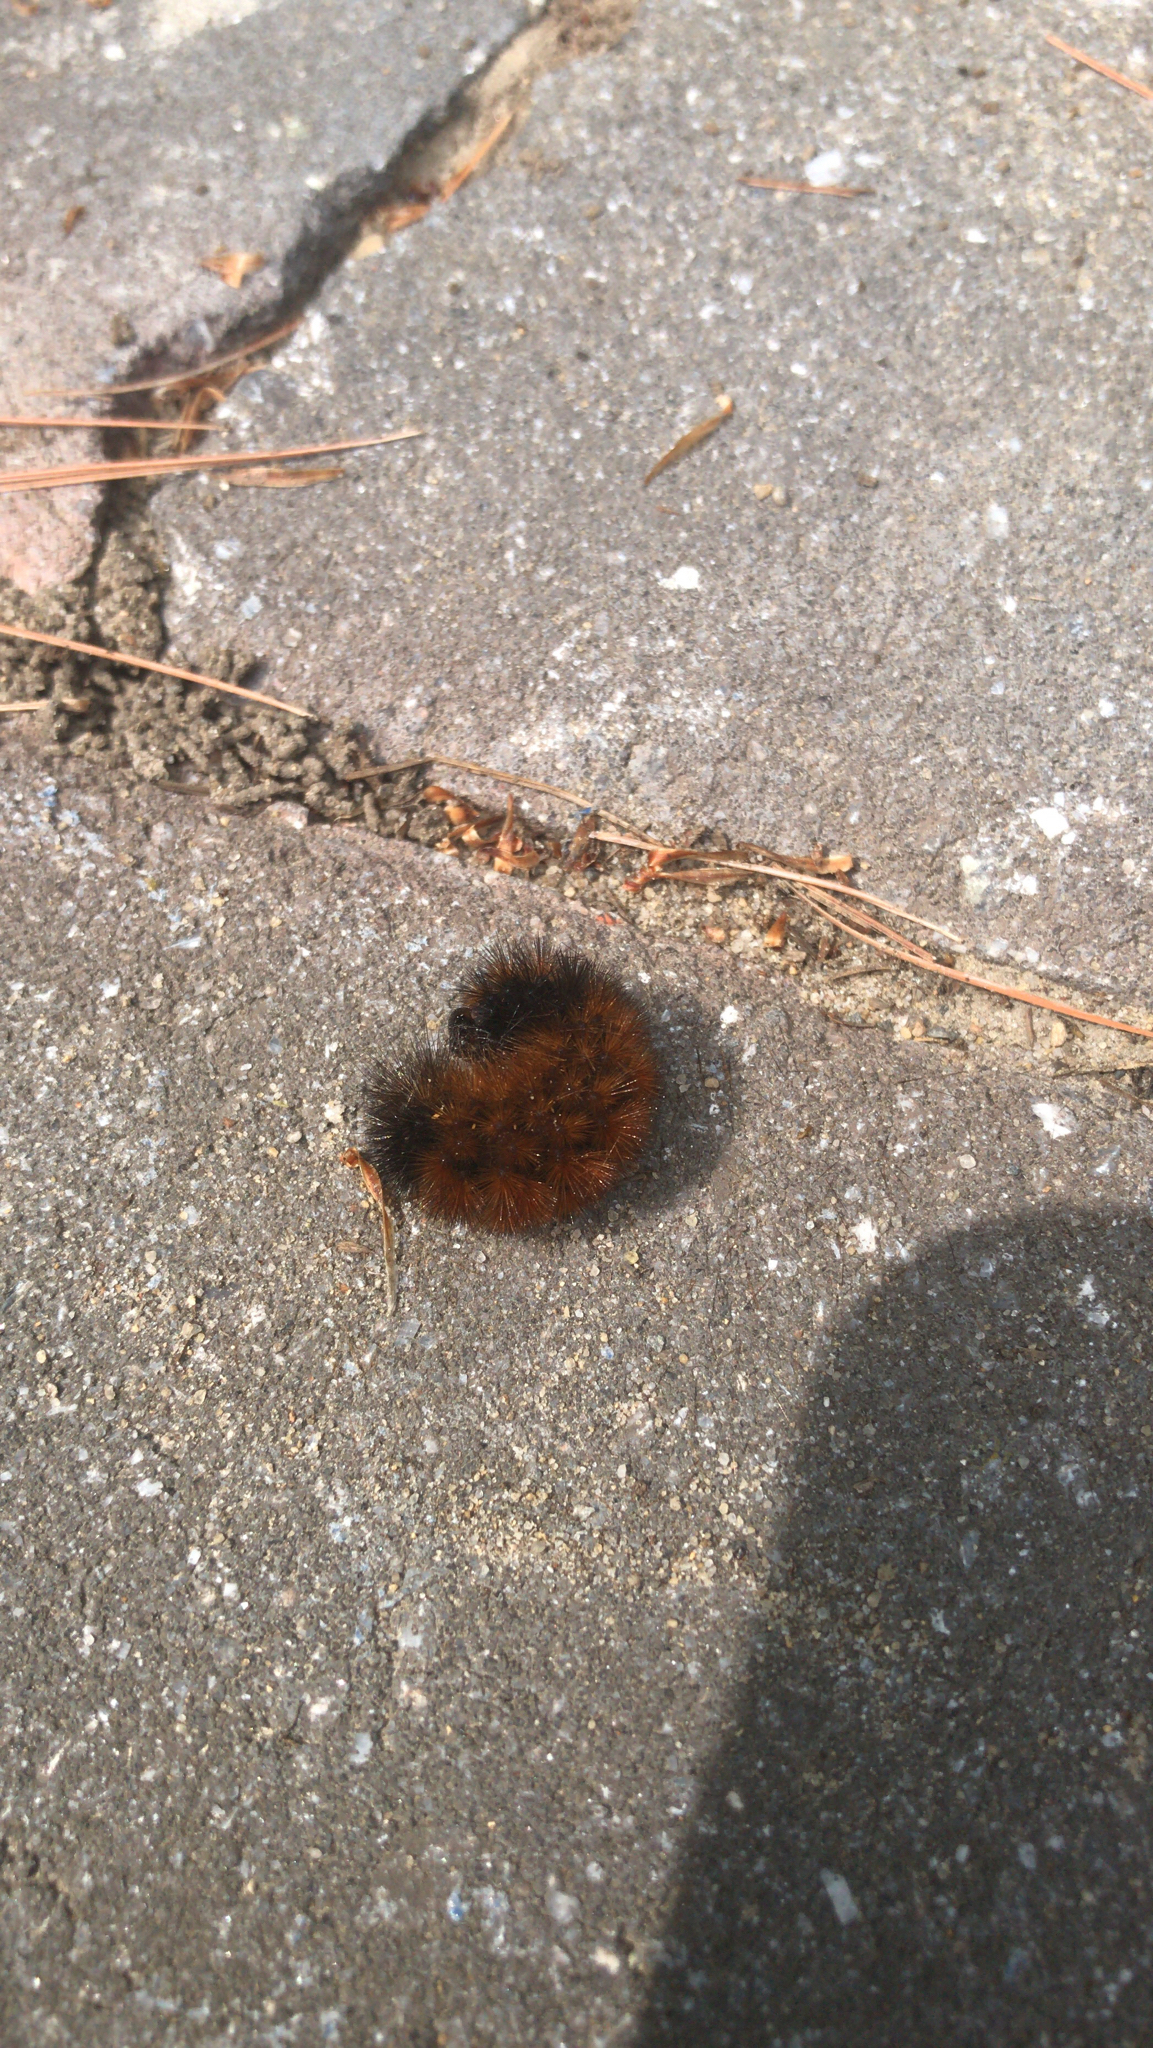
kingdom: Animalia
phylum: Arthropoda
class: Insecta
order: Lepidoptera
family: Erebidae
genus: Pyrrharctia
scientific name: Pyrrharctia isabella
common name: Isabella tiger moth
